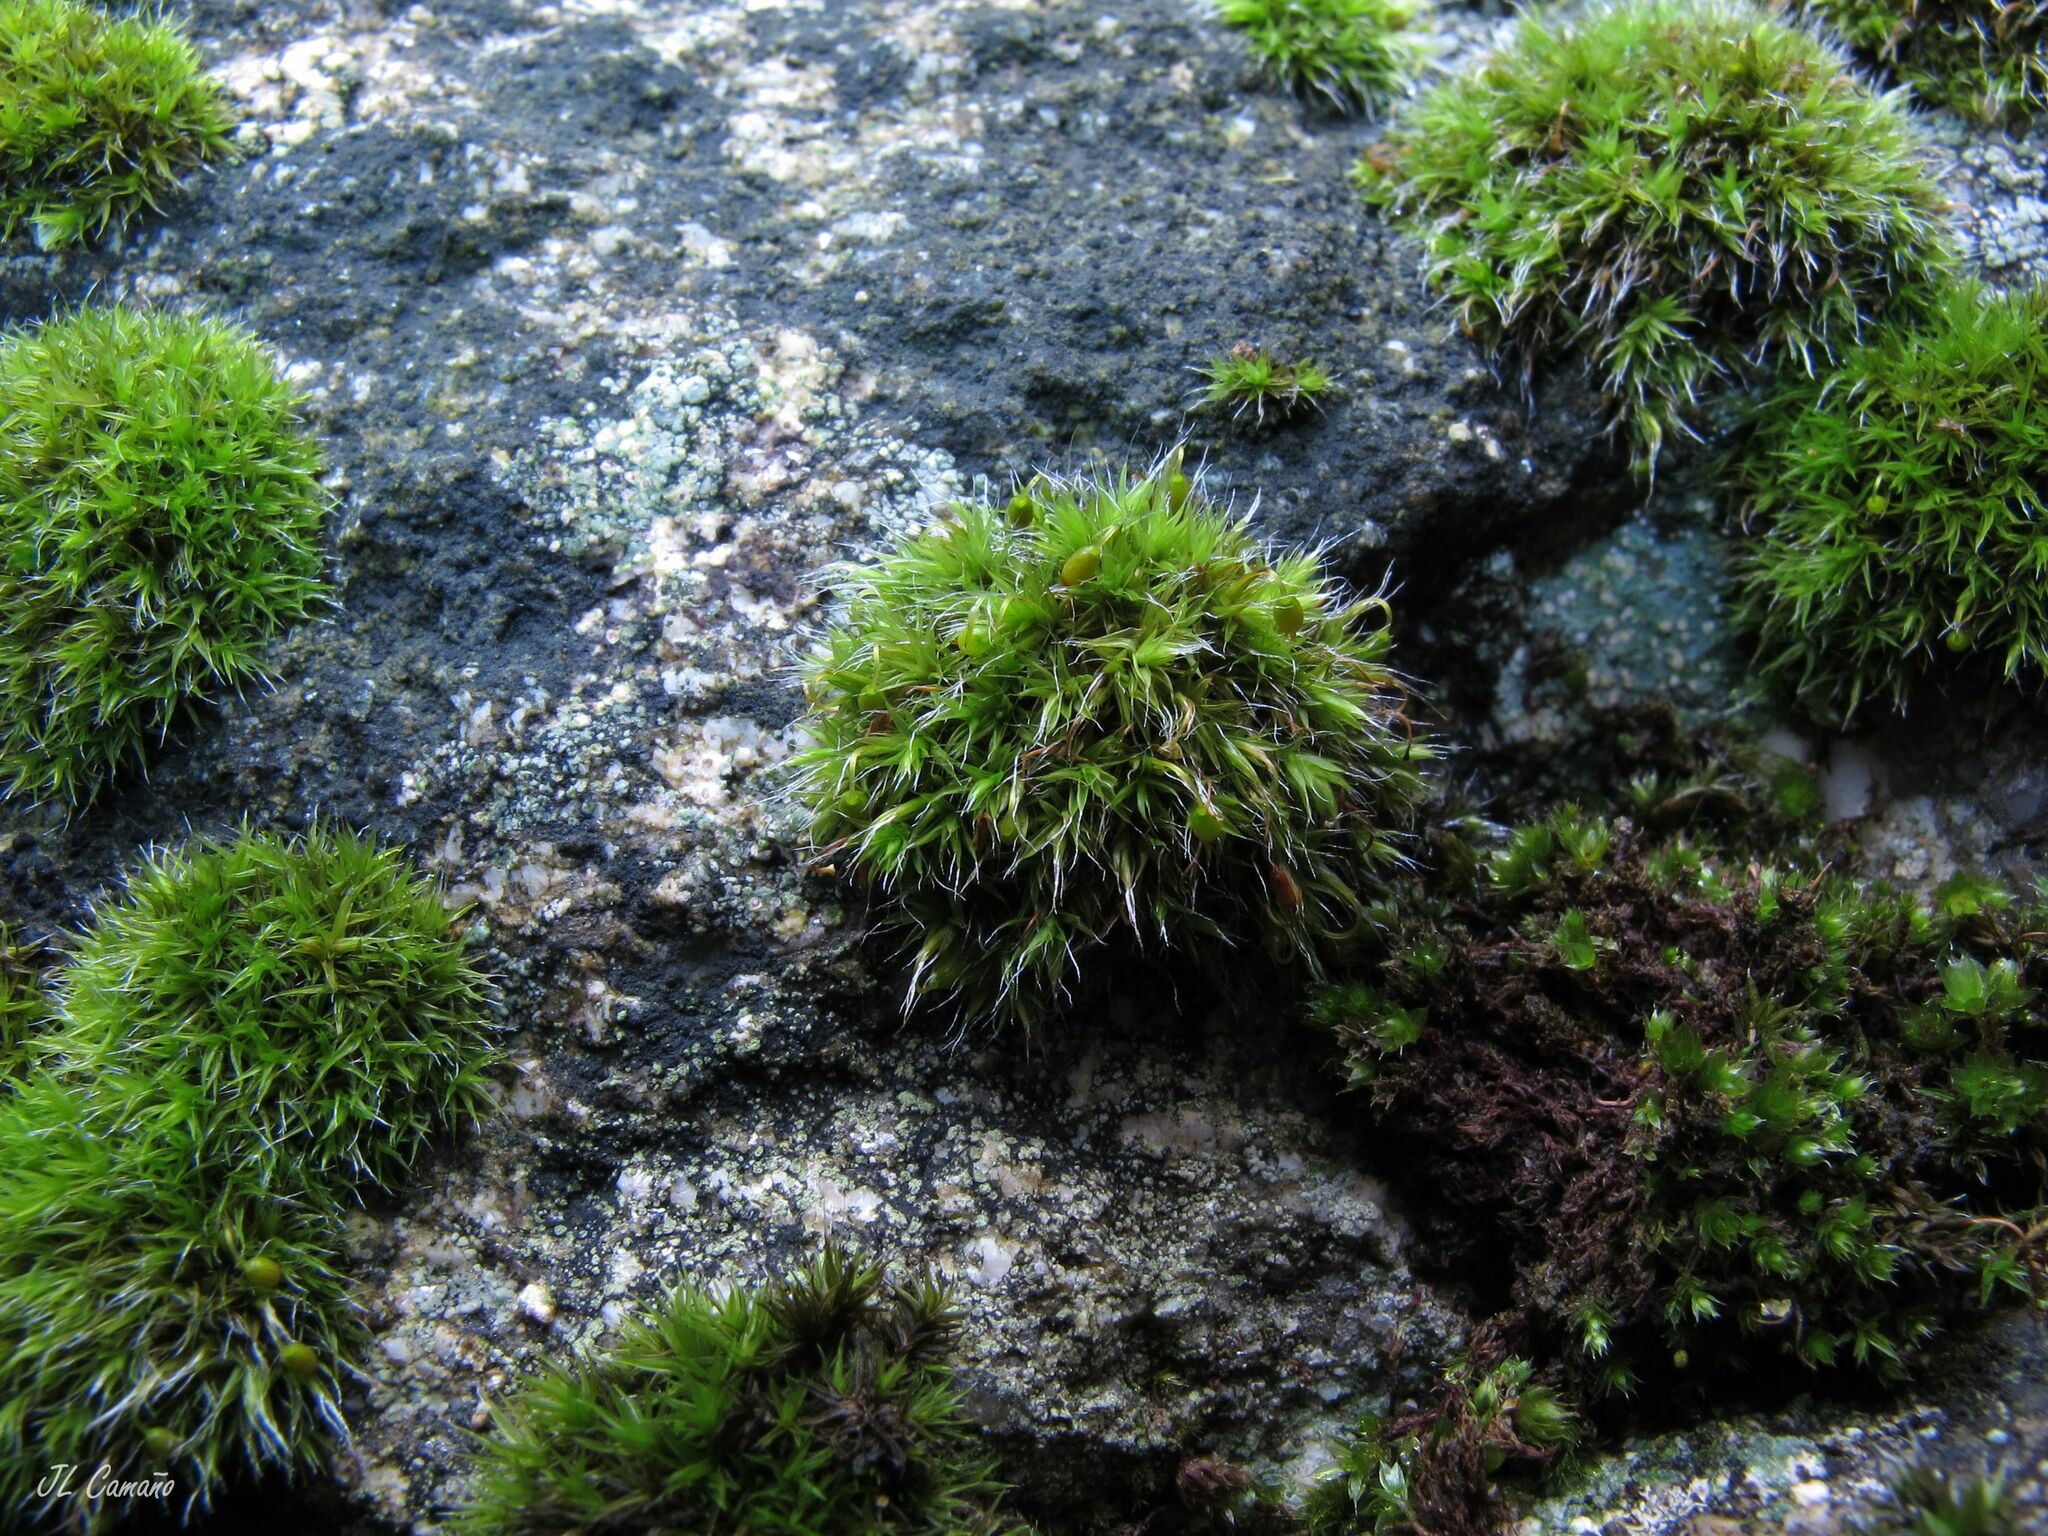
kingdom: Plantae
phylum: Bryophyta
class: Bryopsida
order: Grimmiales
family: Grimmiaceae
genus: Grimmia
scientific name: Grimmia pulvinata
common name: Grey-cushioned grimmia
